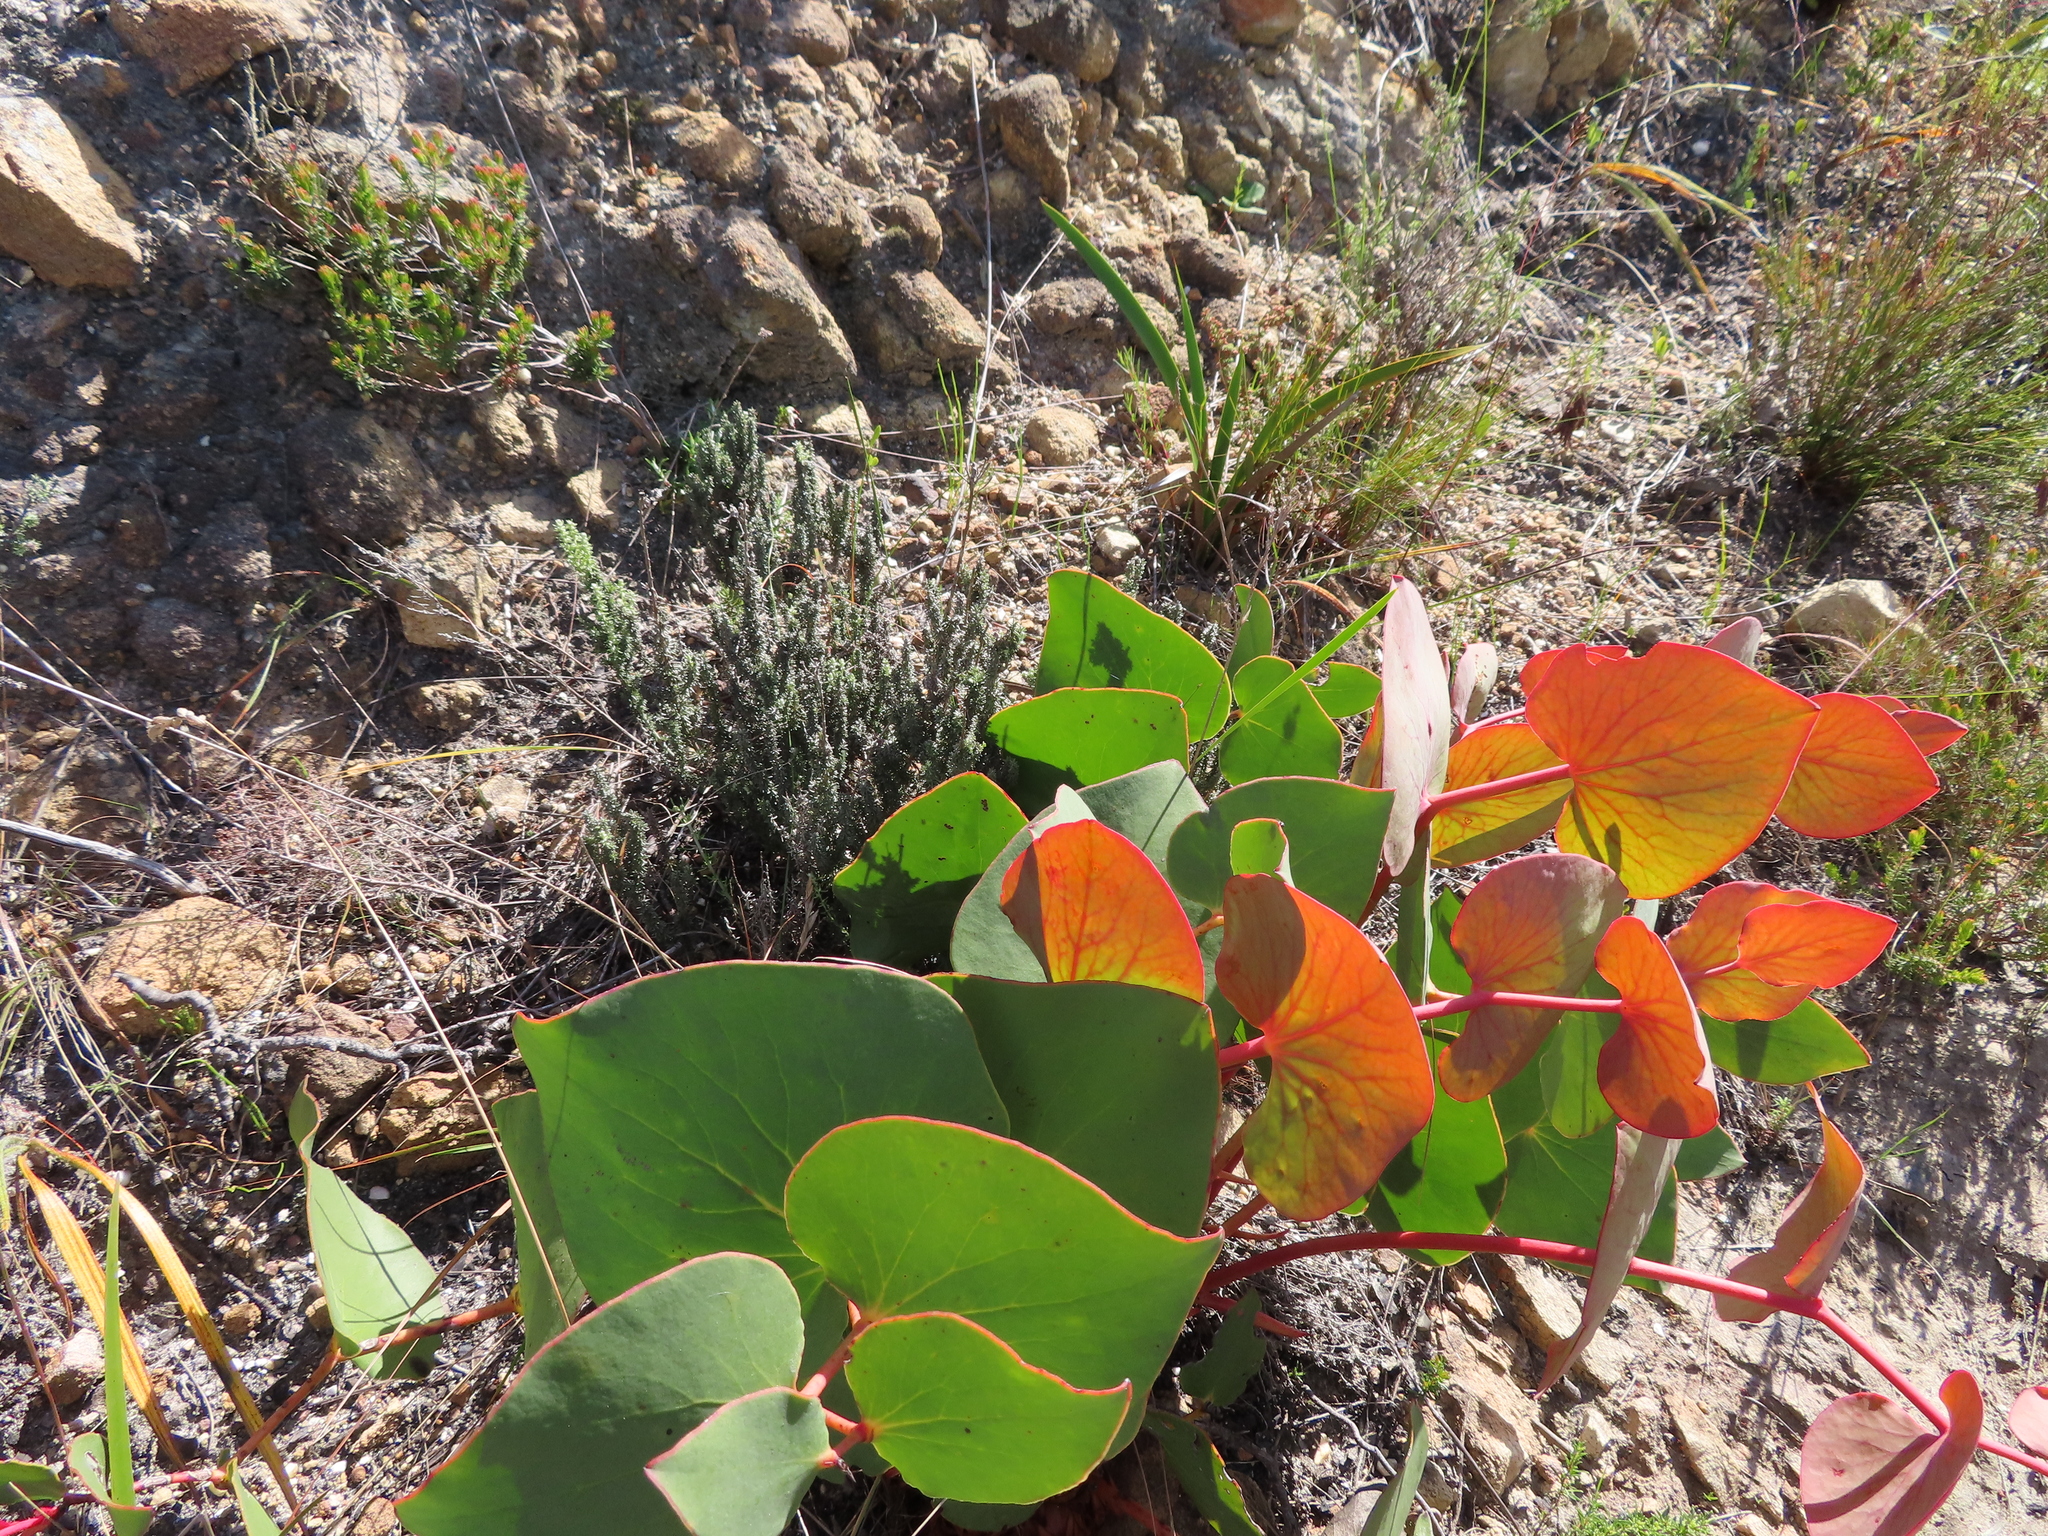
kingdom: Plantae
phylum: Tracheophyta
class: Magnoliopsida
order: Proteales
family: Proteaceae
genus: Protea
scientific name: Protea cordata
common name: Heart-leaf sugarbush
